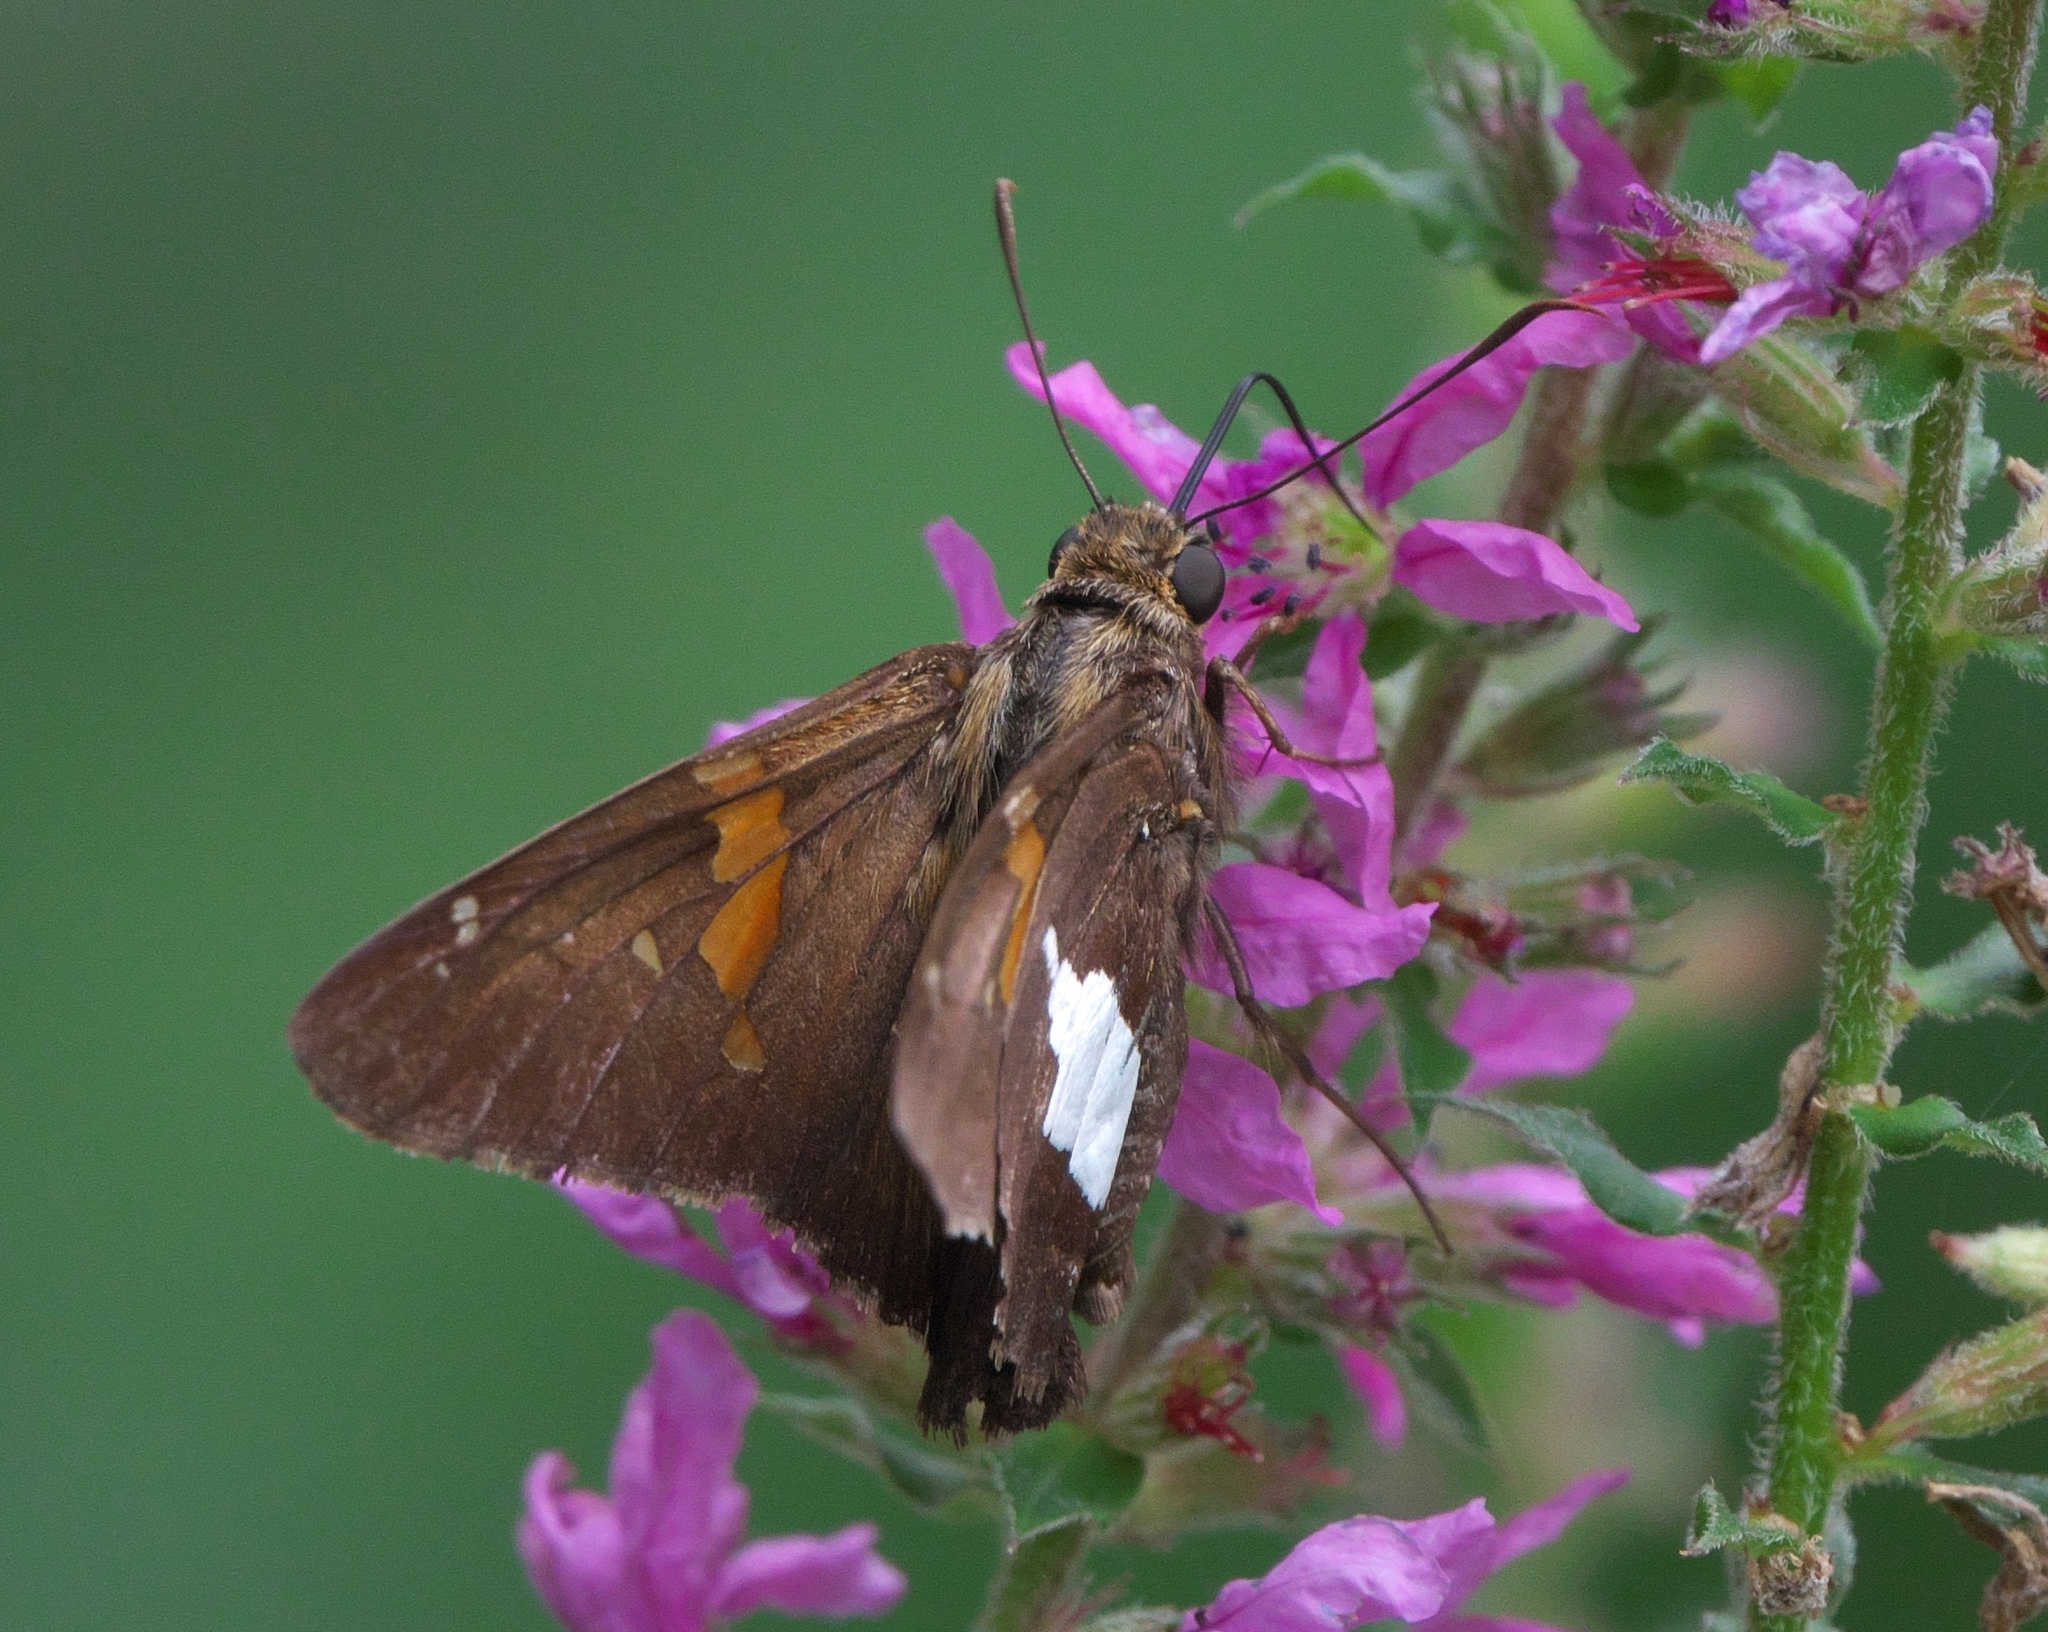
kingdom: Animalia
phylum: Arthropoda
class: Insecta
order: Lepidoptera
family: Hesperiidae
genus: Epargyreus
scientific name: Epargyreus clarus
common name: Silver-spotted skipper
